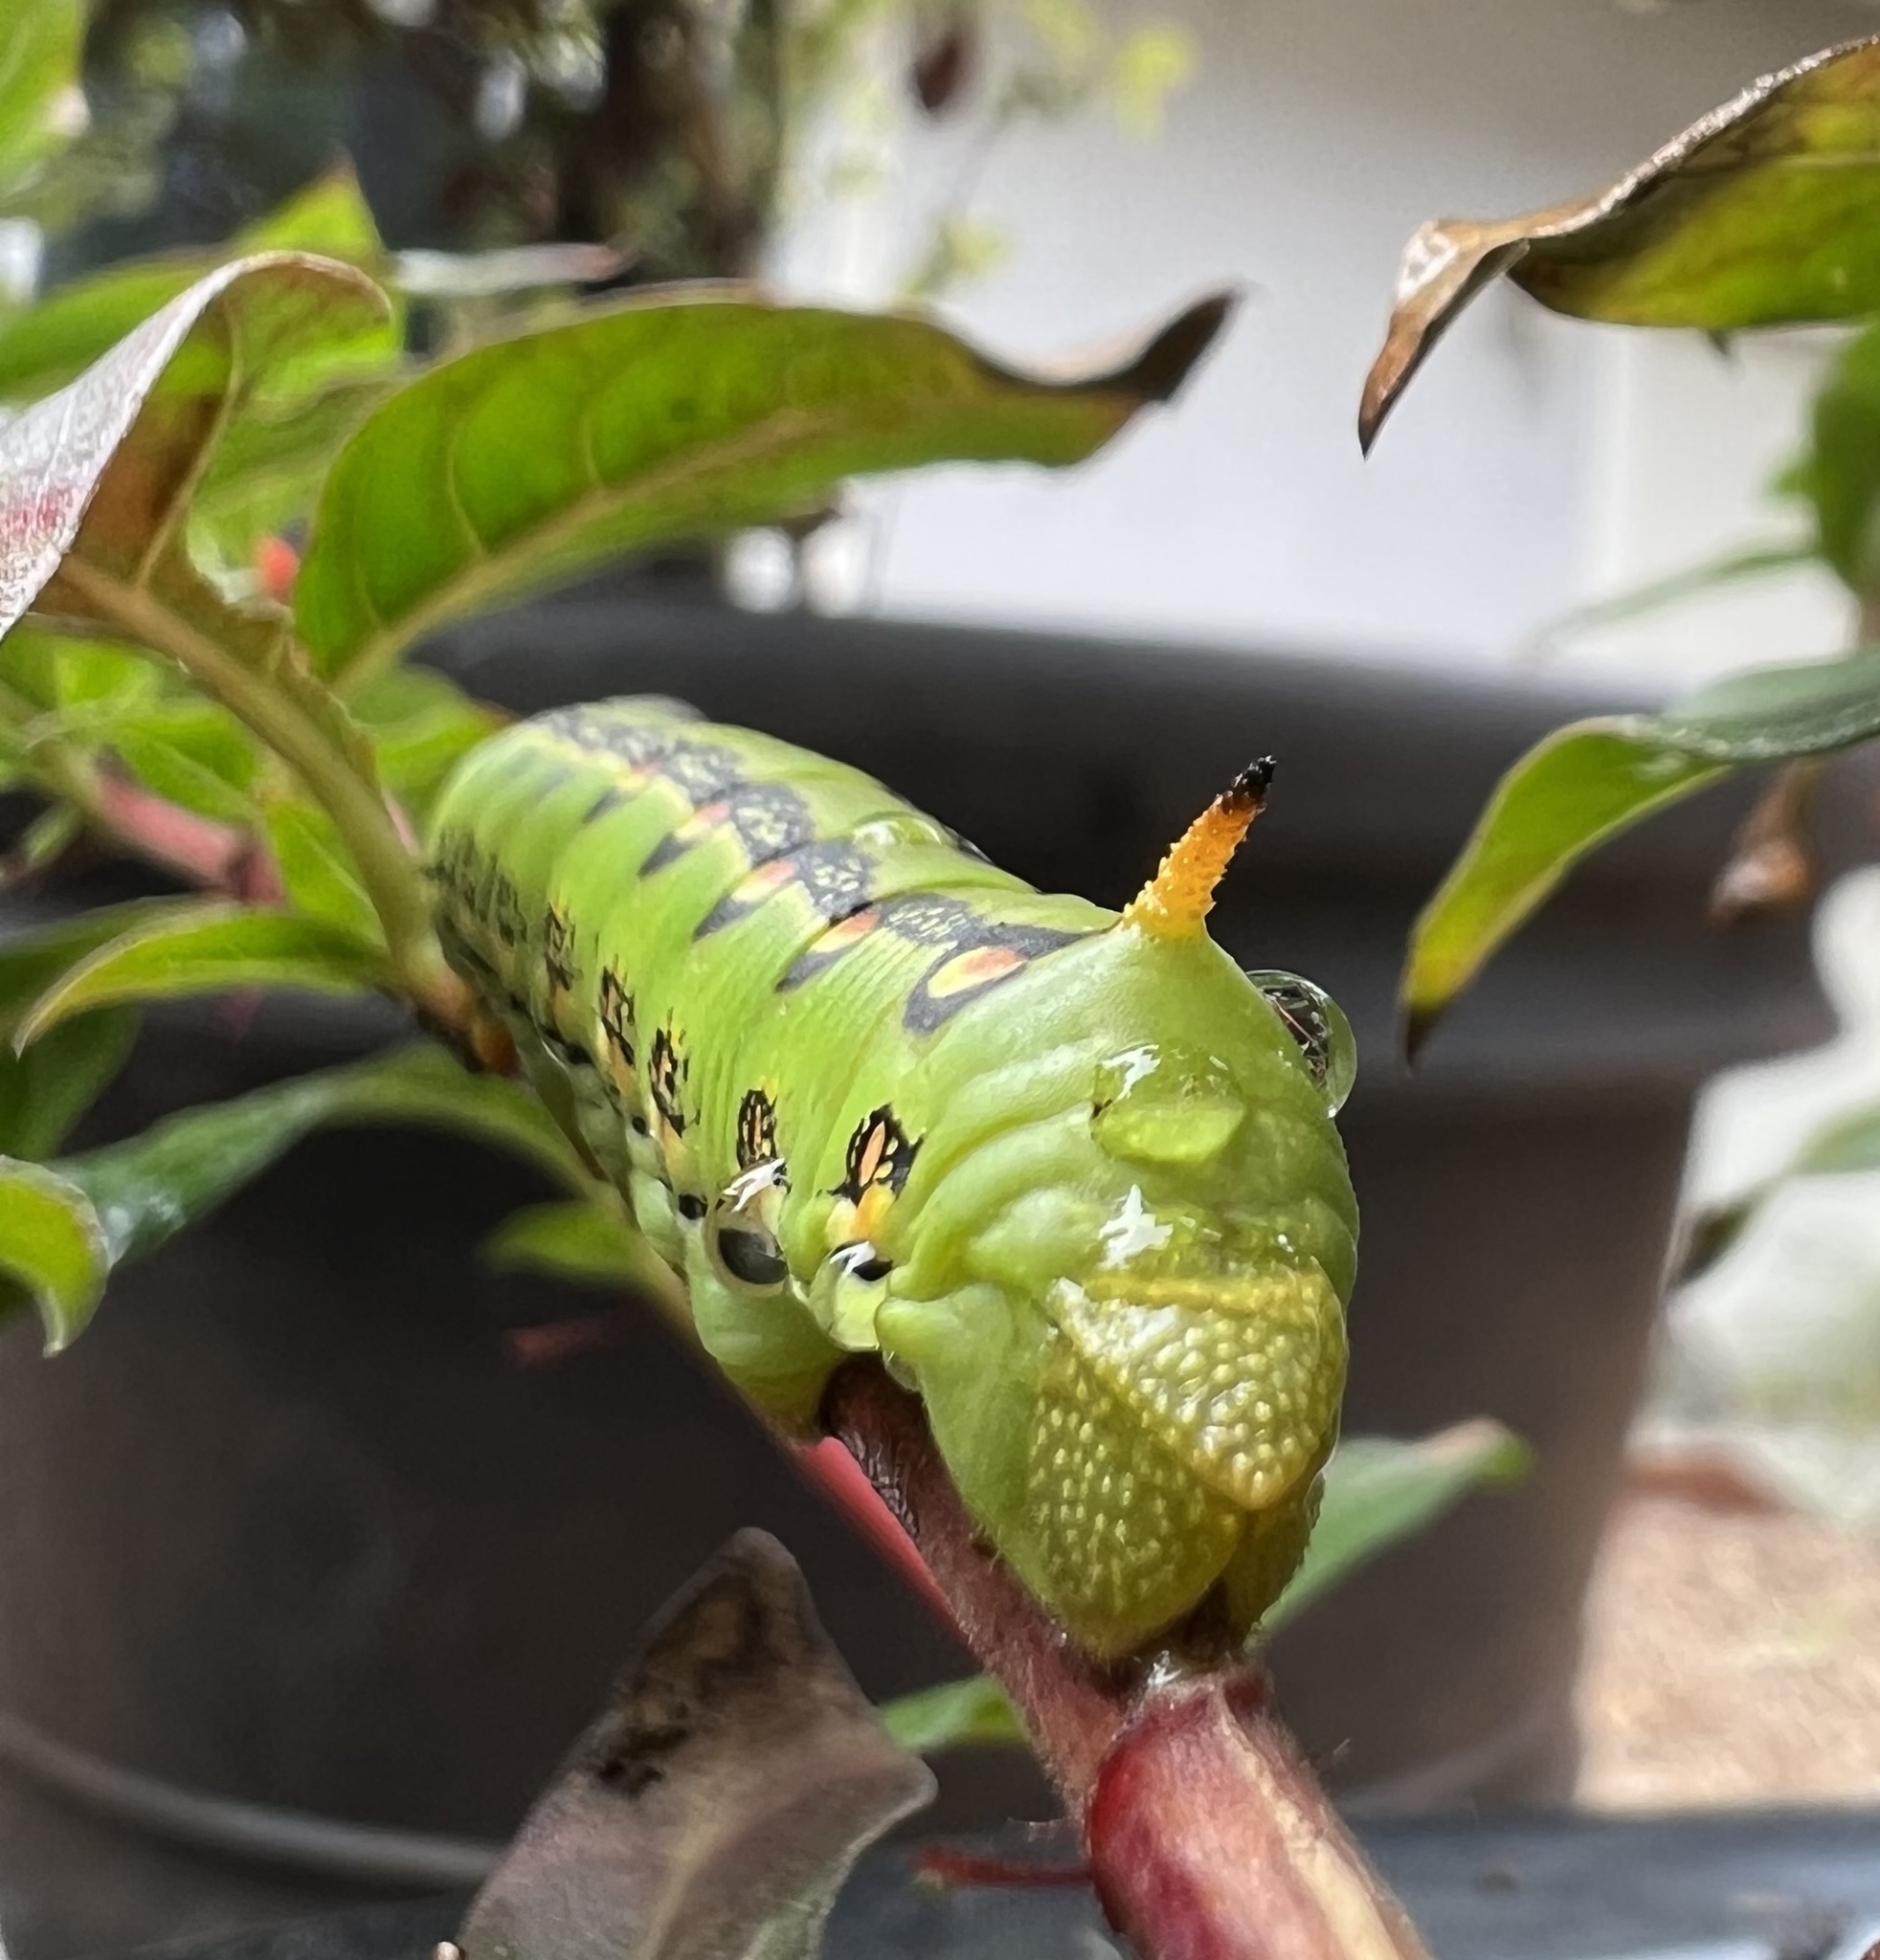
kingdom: Animalia
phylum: Arthropoda
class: Insecta
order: Lepidoptera
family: Sphingidae
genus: Hyles
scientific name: Hyles lineata
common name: White-lined sphinx
